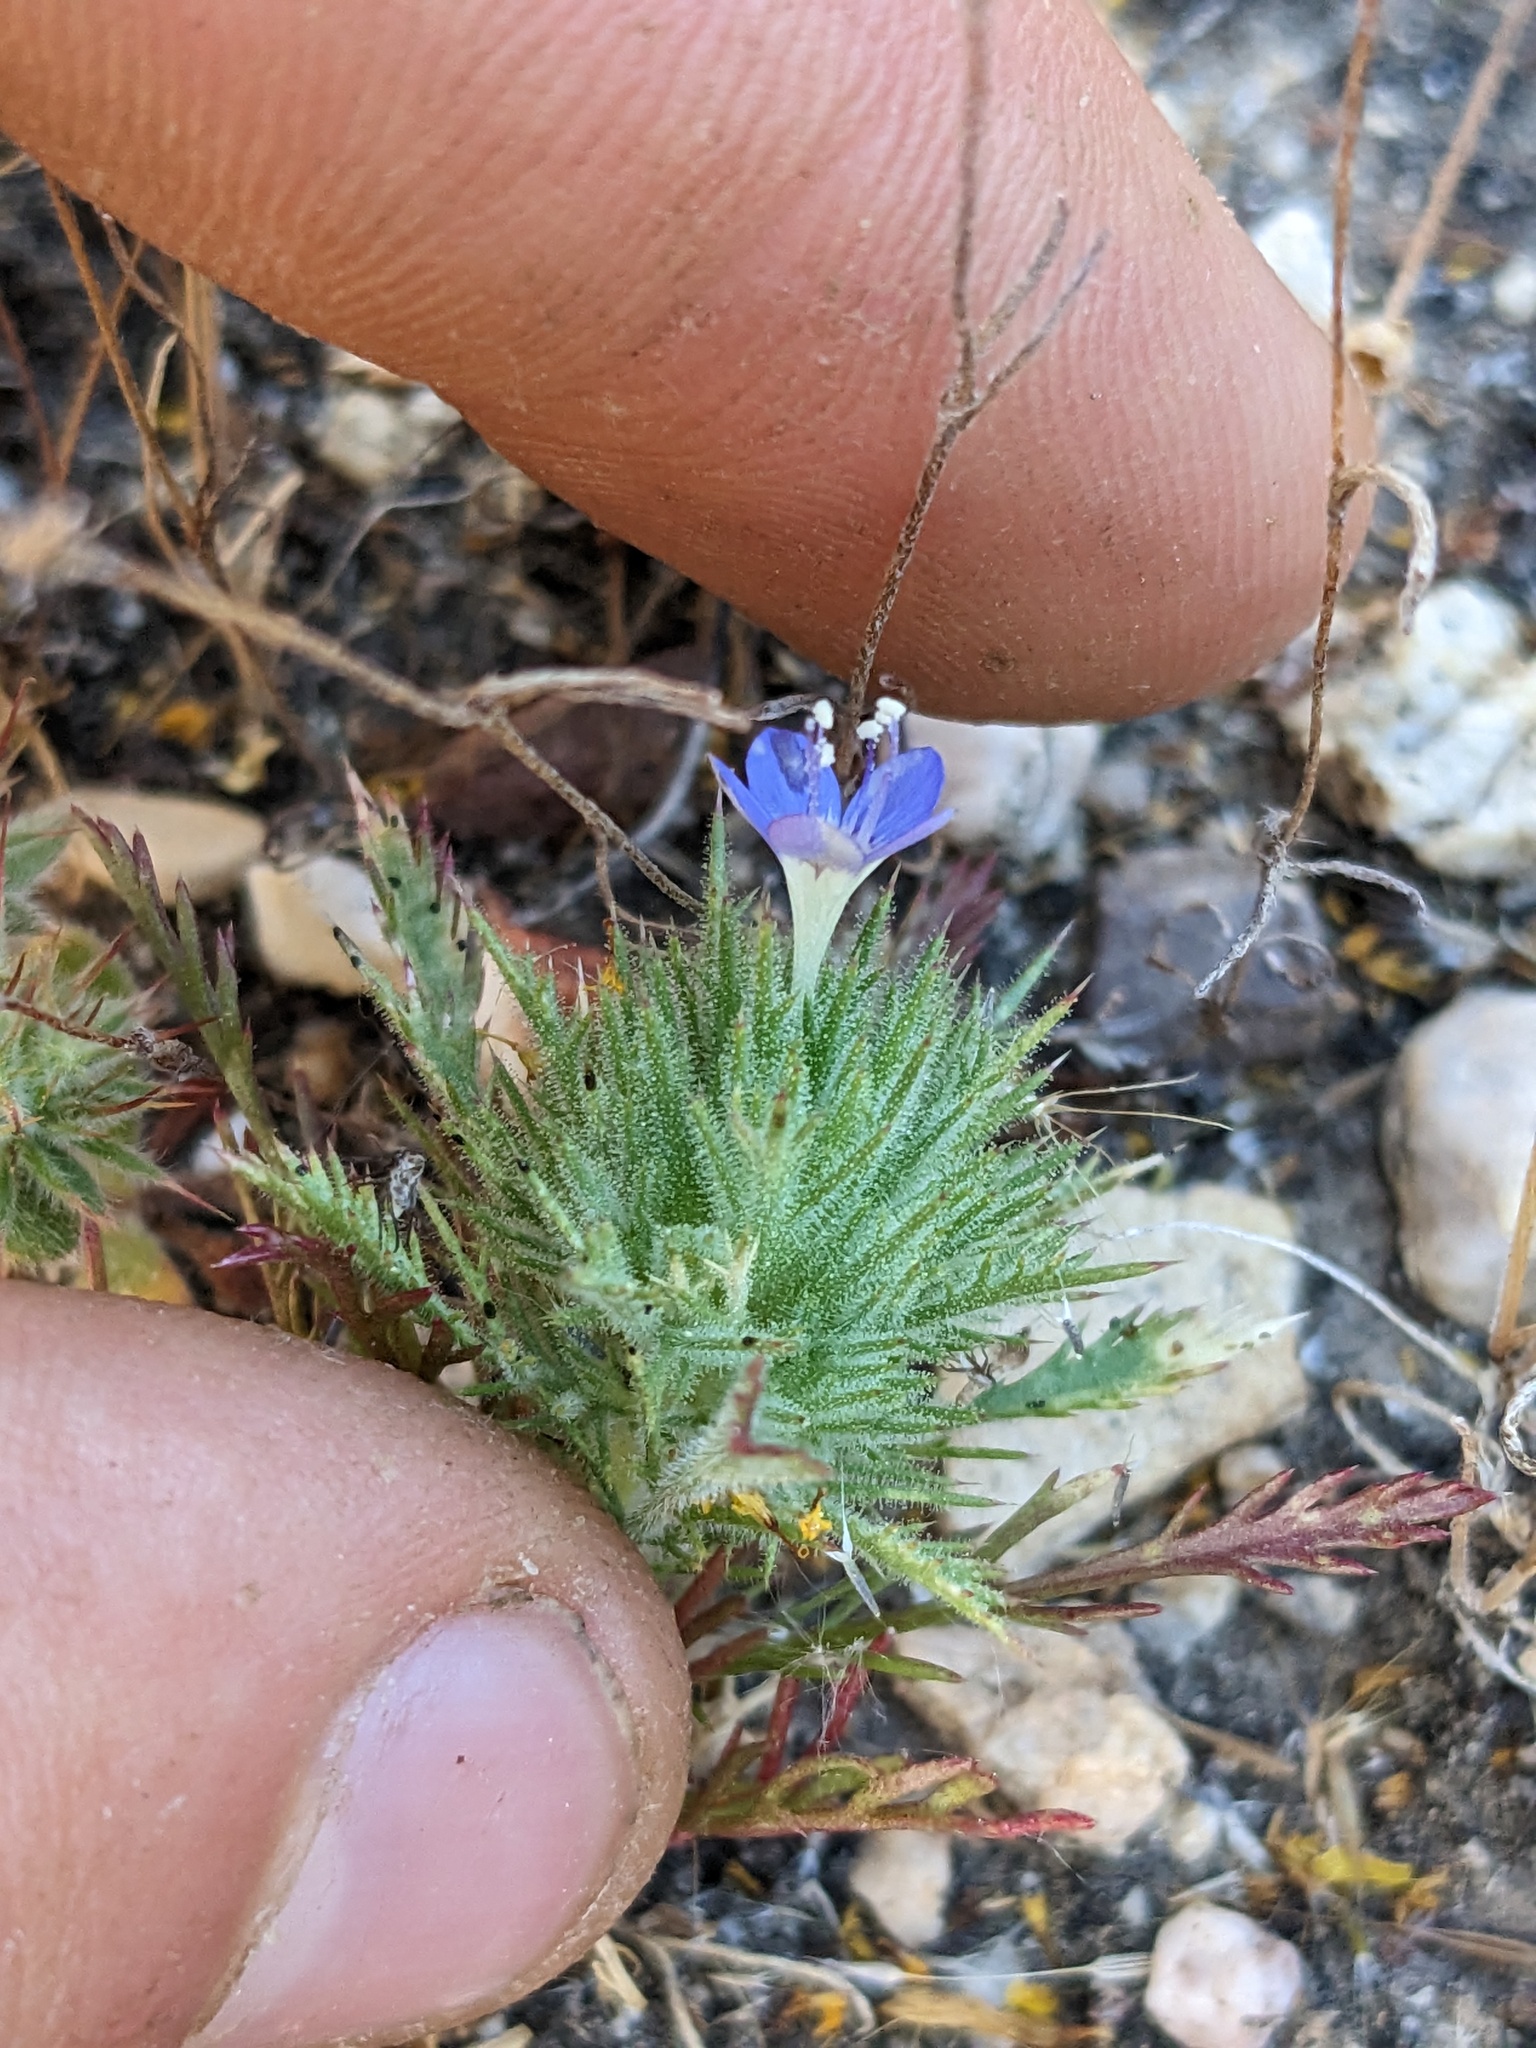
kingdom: Plantae
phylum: Tracheophyta
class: Magnoliopsida
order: Ericales
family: Polemoniaceae
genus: Navarretia
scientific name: Navarretia pubescens
